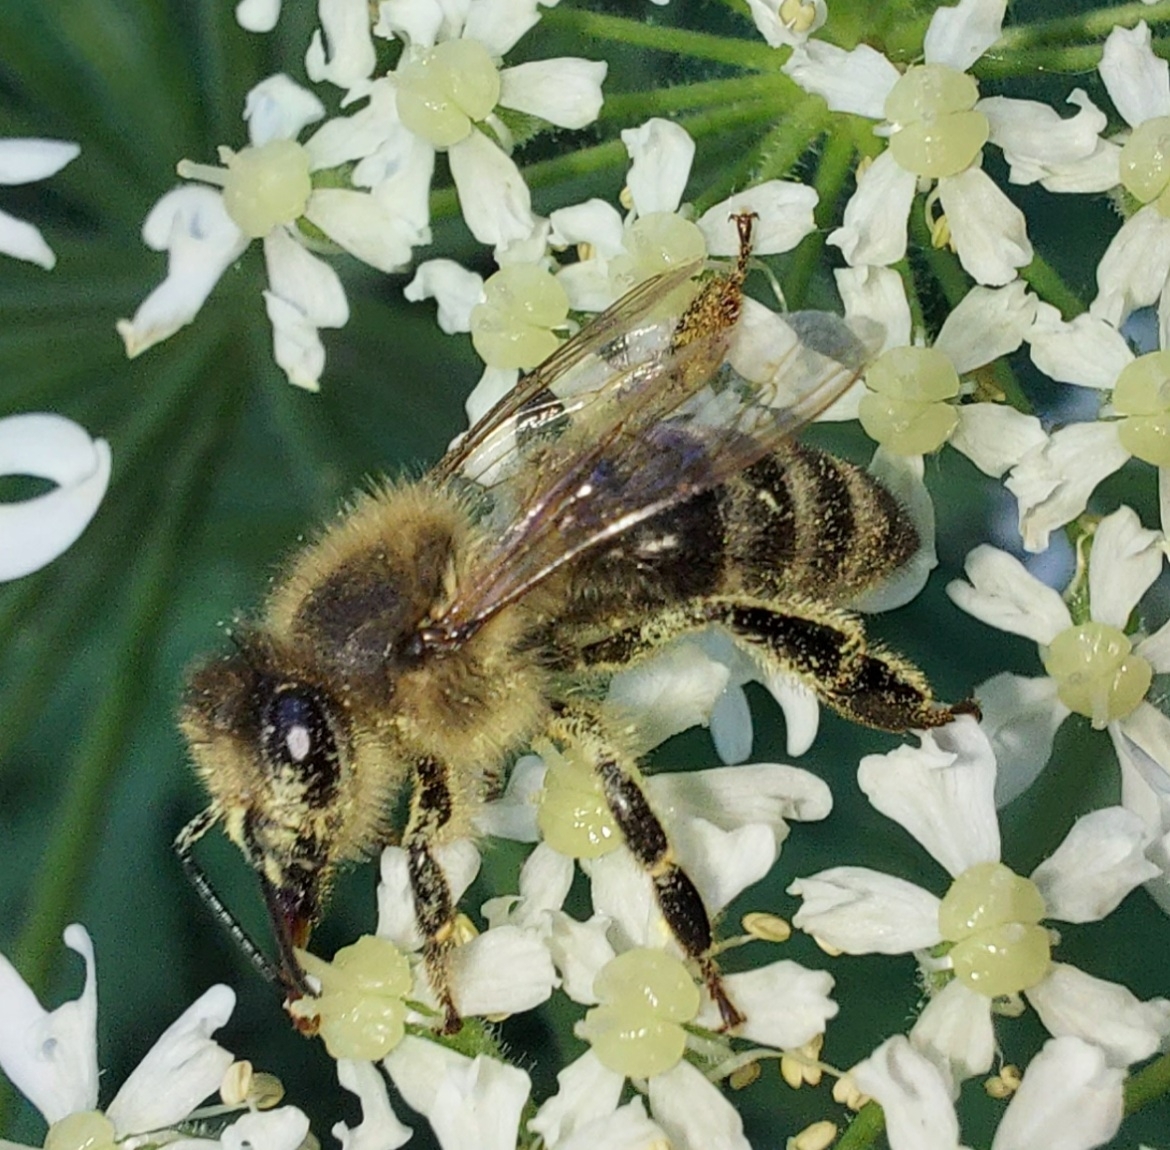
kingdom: Animalia
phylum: Arthropoda
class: Insecta
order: Hymenoptera
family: Apidae
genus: Apis
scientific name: Apis mellifera
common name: Honey bee
